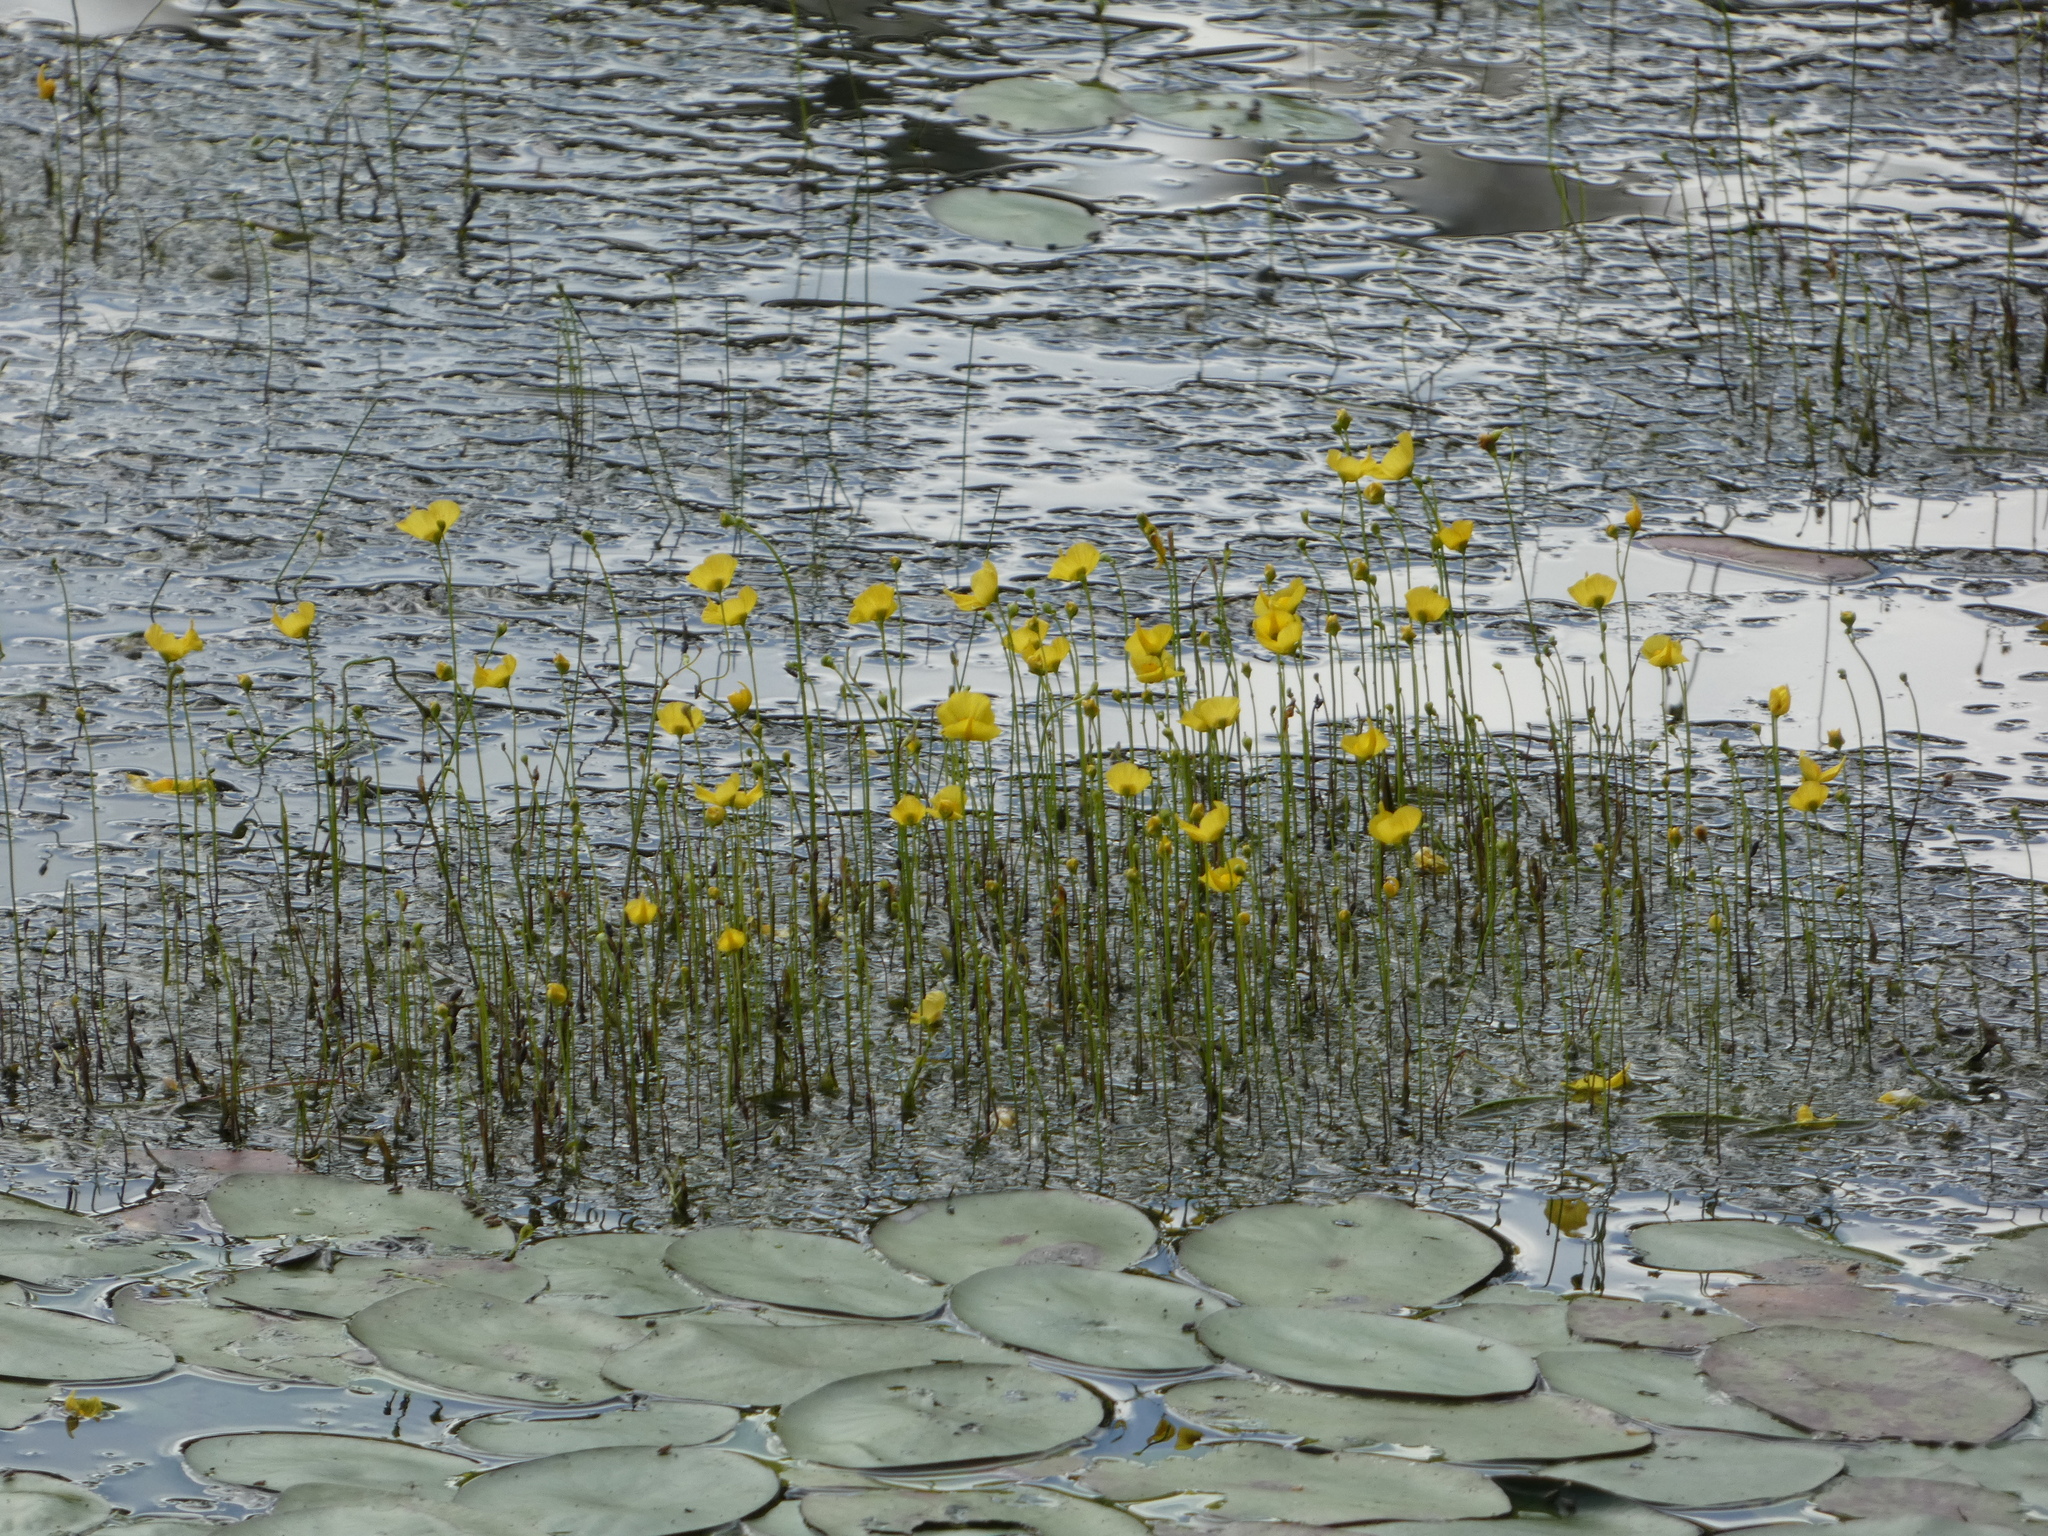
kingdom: Plantae
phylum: Tracheophyta
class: Magnoliopsida
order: Lamiales
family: Lentibulariaceae
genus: Utricularia
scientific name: Utricularia gibba
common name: Humped bladderwort
